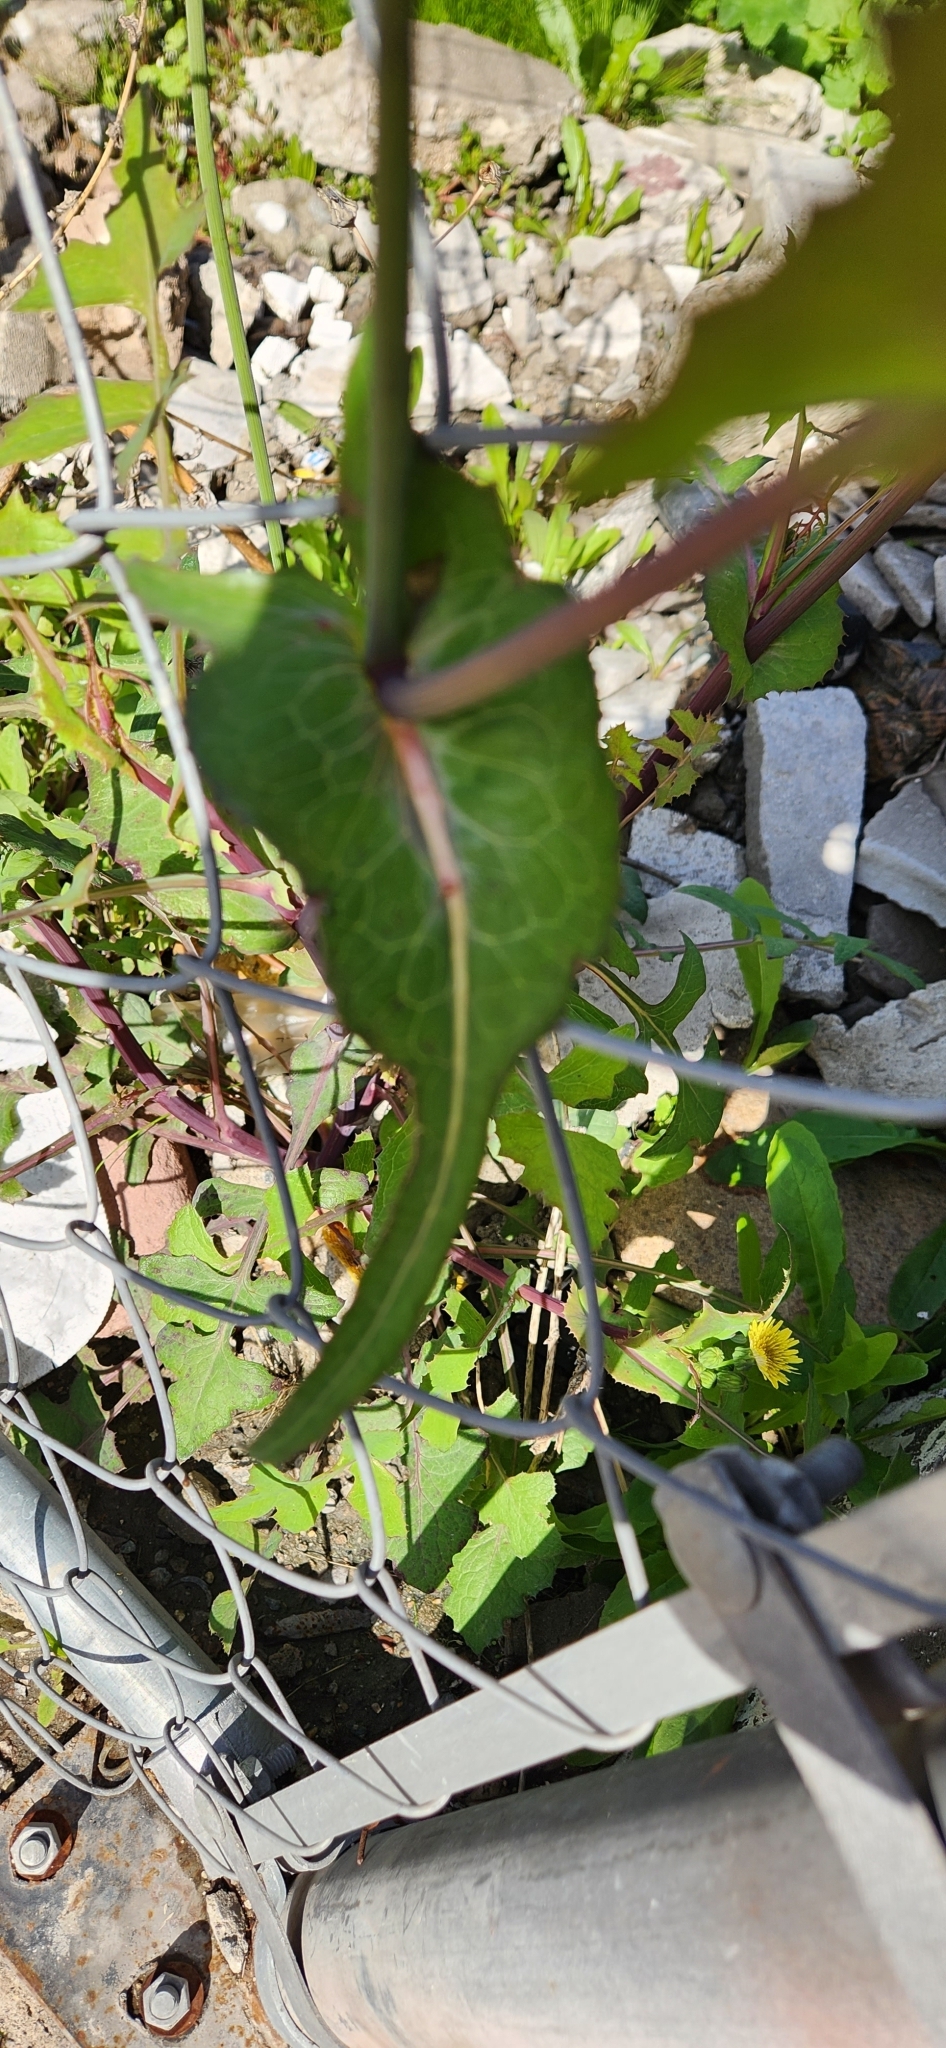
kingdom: Plantae
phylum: Tracheophyta
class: Magnoliopsida
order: Asterales
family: Asteraceae
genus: Sonchus
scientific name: Sonchus oleraceus
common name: Common sowthistle
